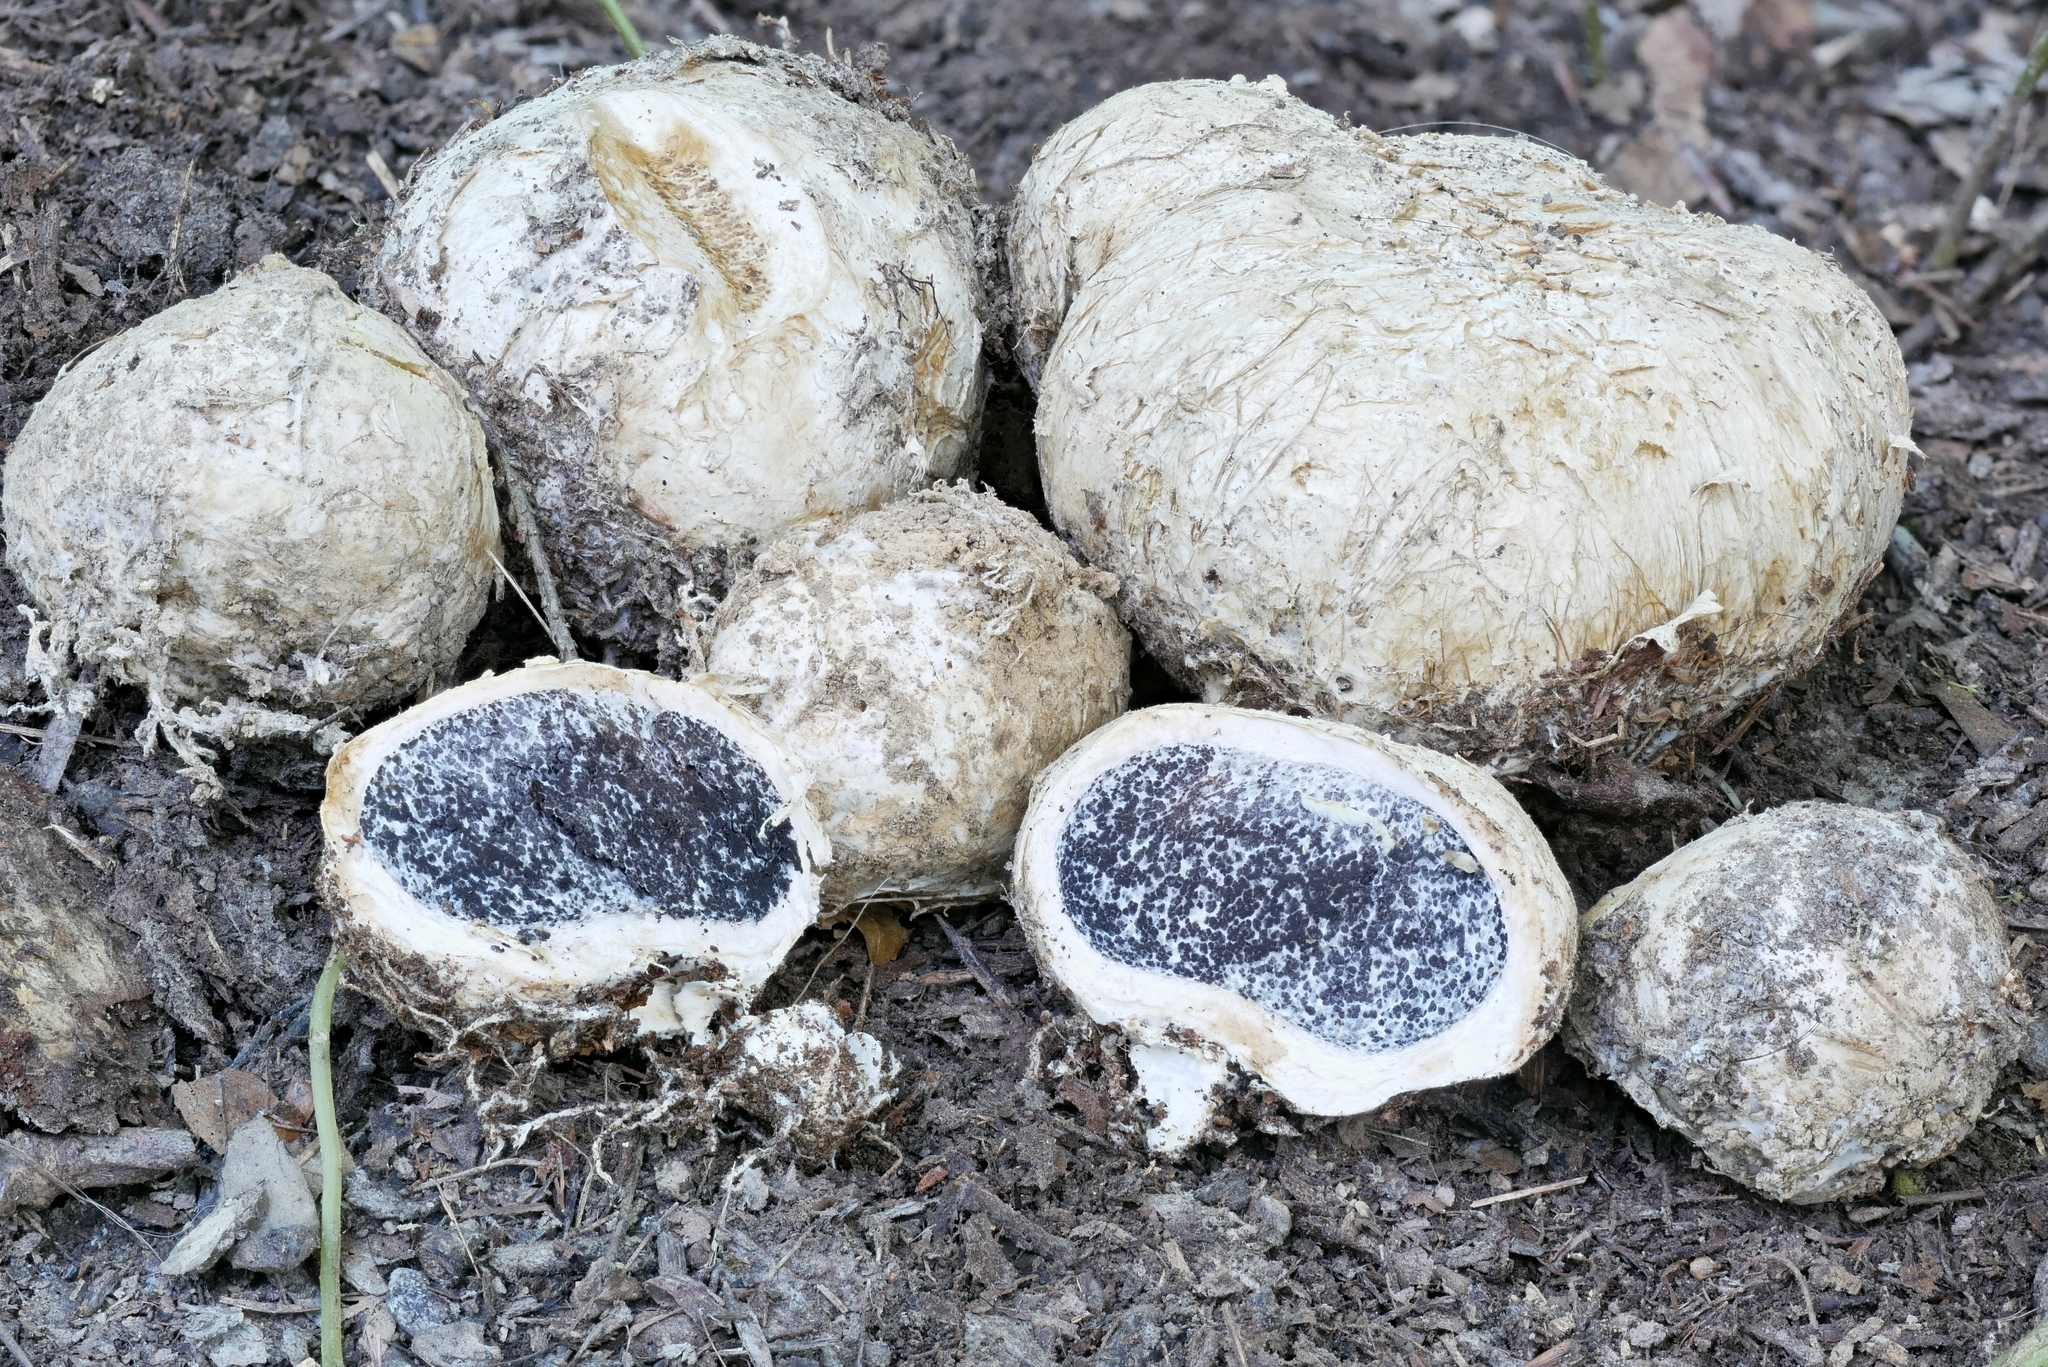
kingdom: Fungi
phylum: Basidiomycota
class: Agaricomycetes
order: Boletales
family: Sclerodermataceae
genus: Scleroderma
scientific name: Scleroderma polyrhizum
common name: Many-rooted earthball
